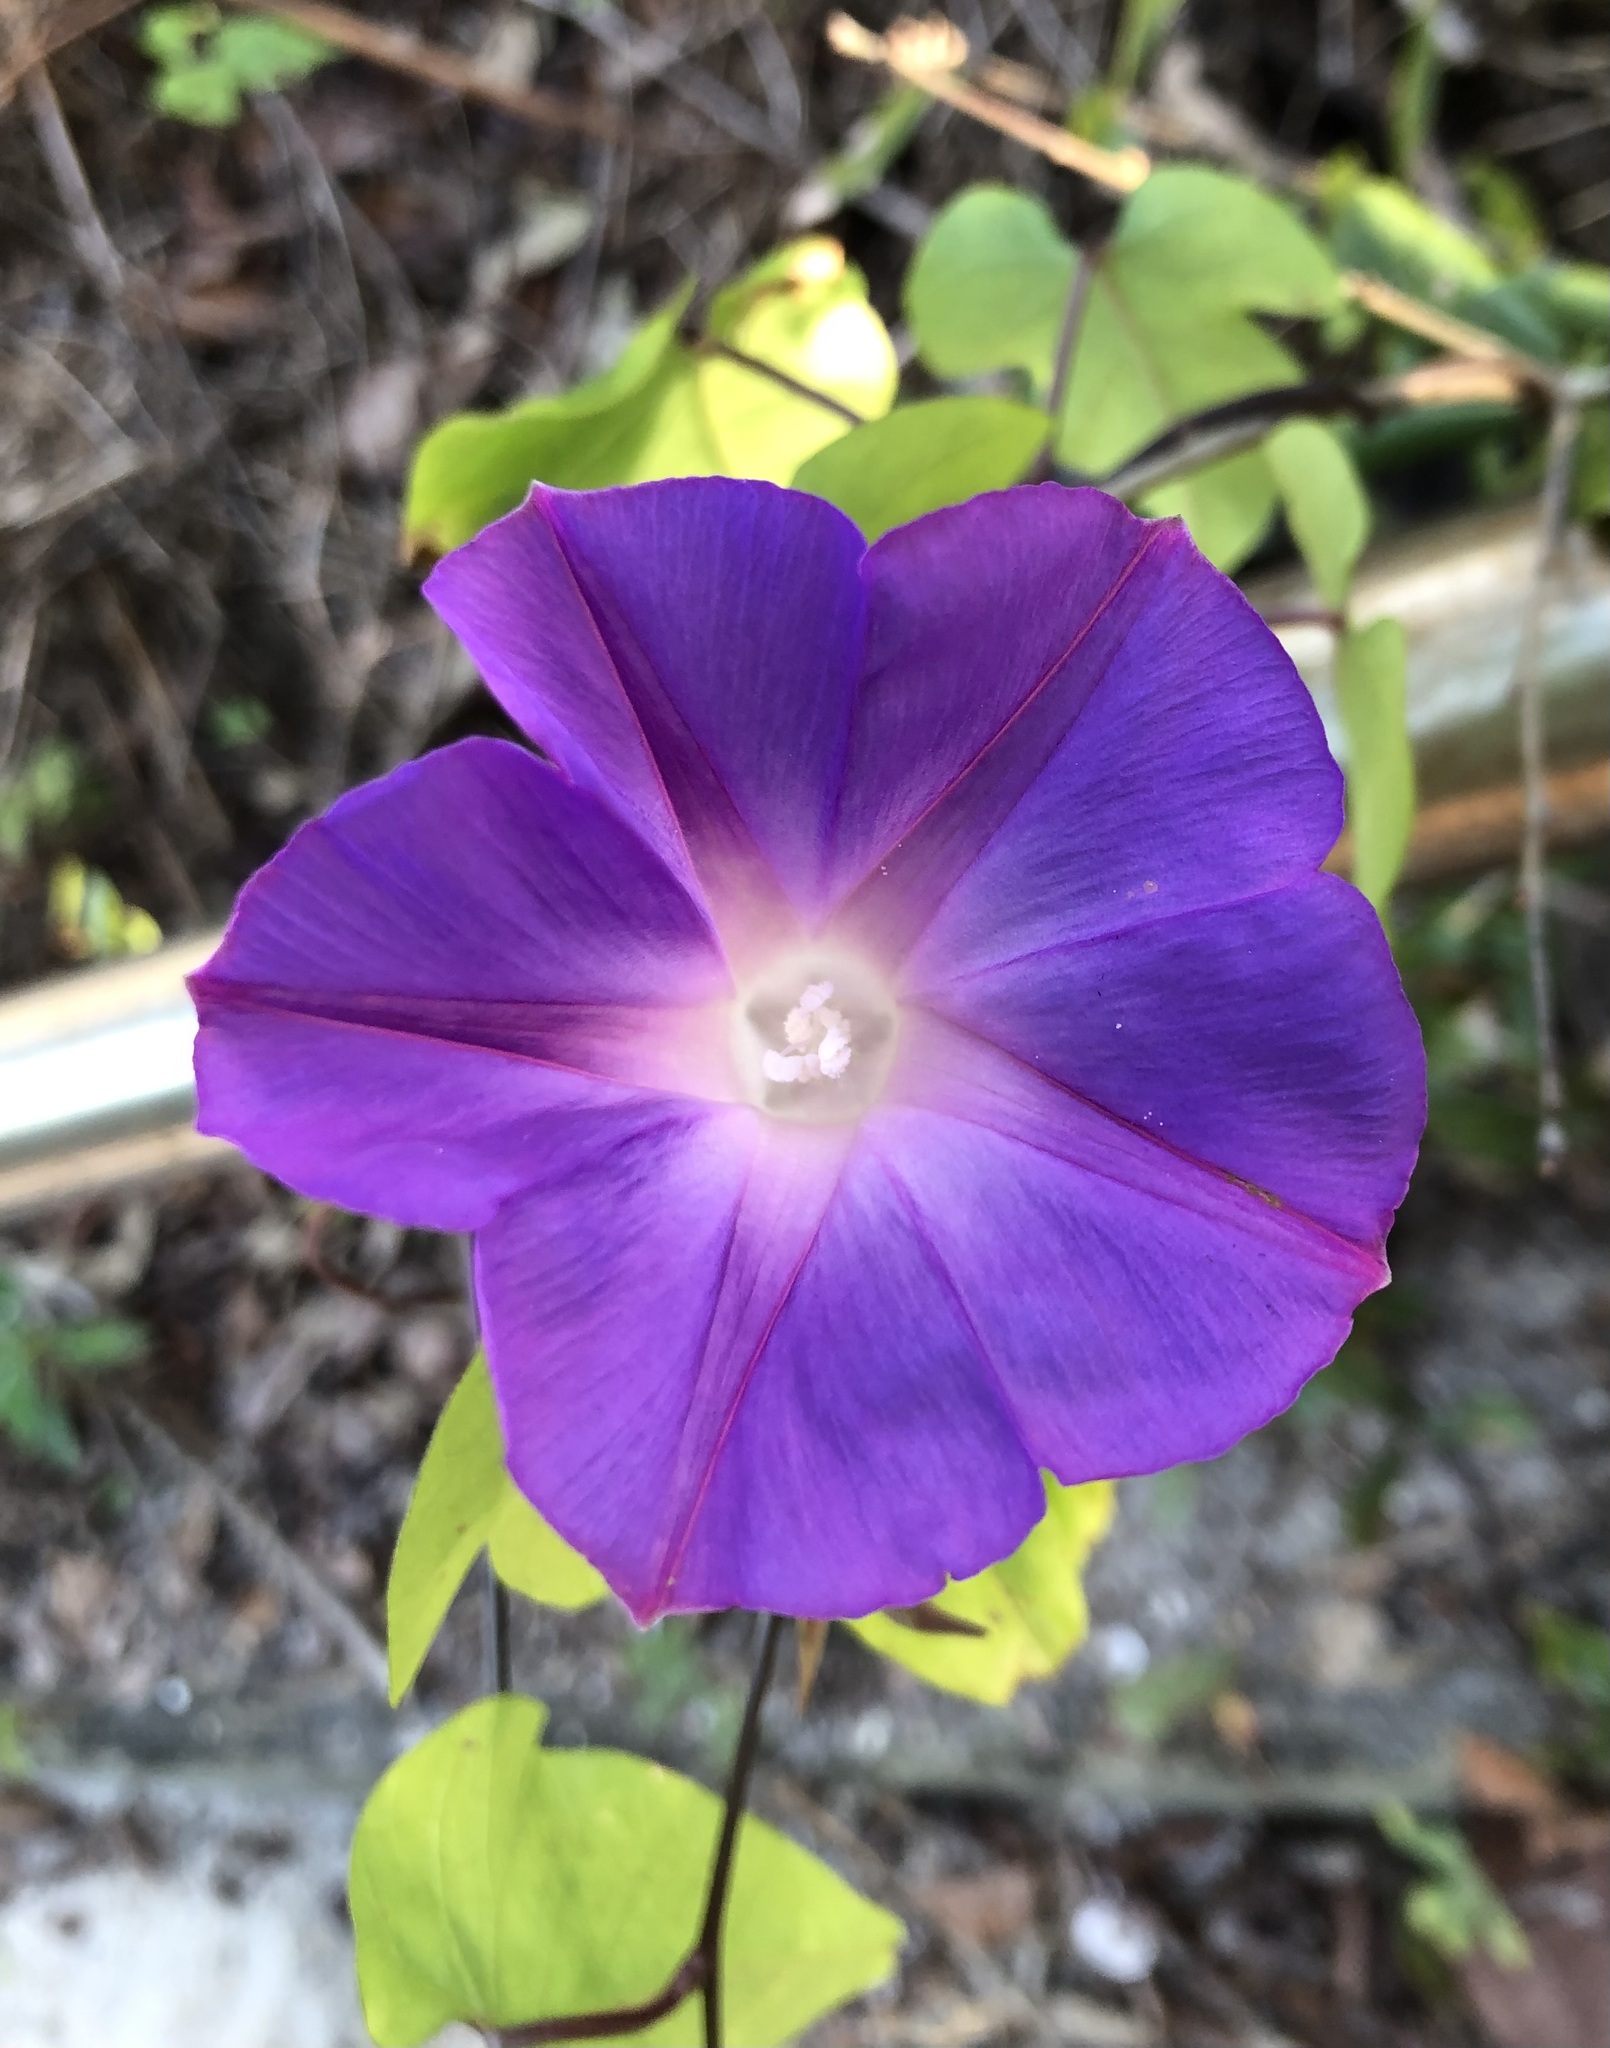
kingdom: Plantae
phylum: Tracheophyta
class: Magnoliopsida
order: Solanales
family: Convolvulaceae
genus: Ipomoea
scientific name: Ipomoea indica
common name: Blue dawnflower
